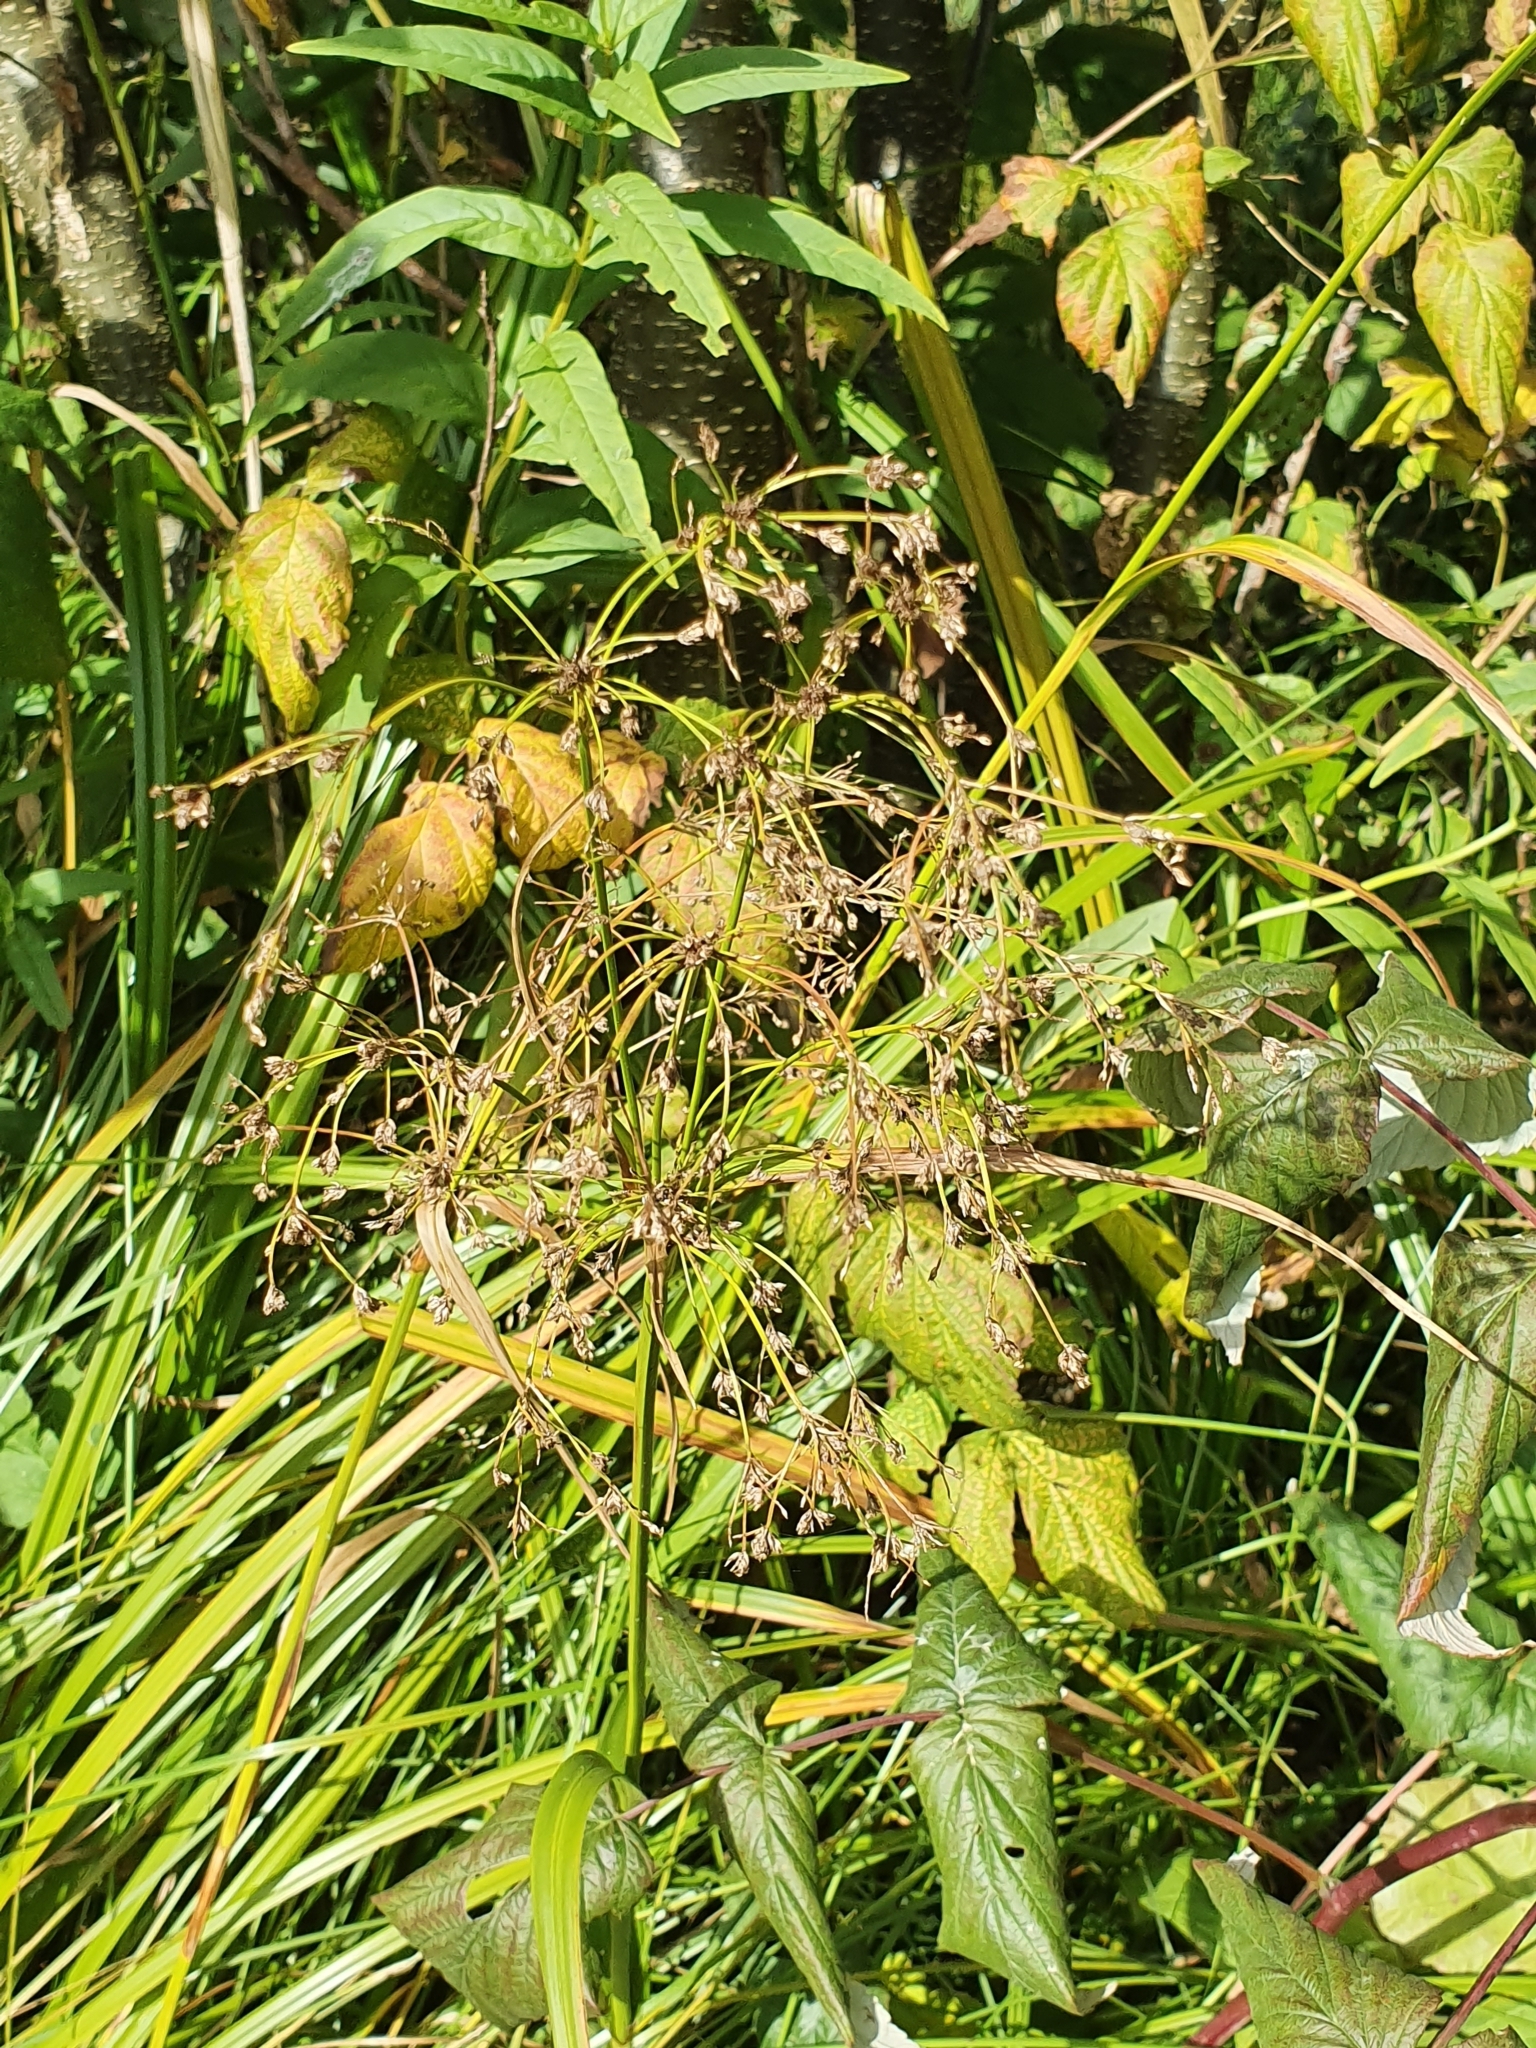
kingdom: Plantae
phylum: Tracheophyta
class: Liliopsida
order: Poales
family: Cyperaceae
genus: Scirpus
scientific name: Scirpus sylvaticus
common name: Wood club-rush
